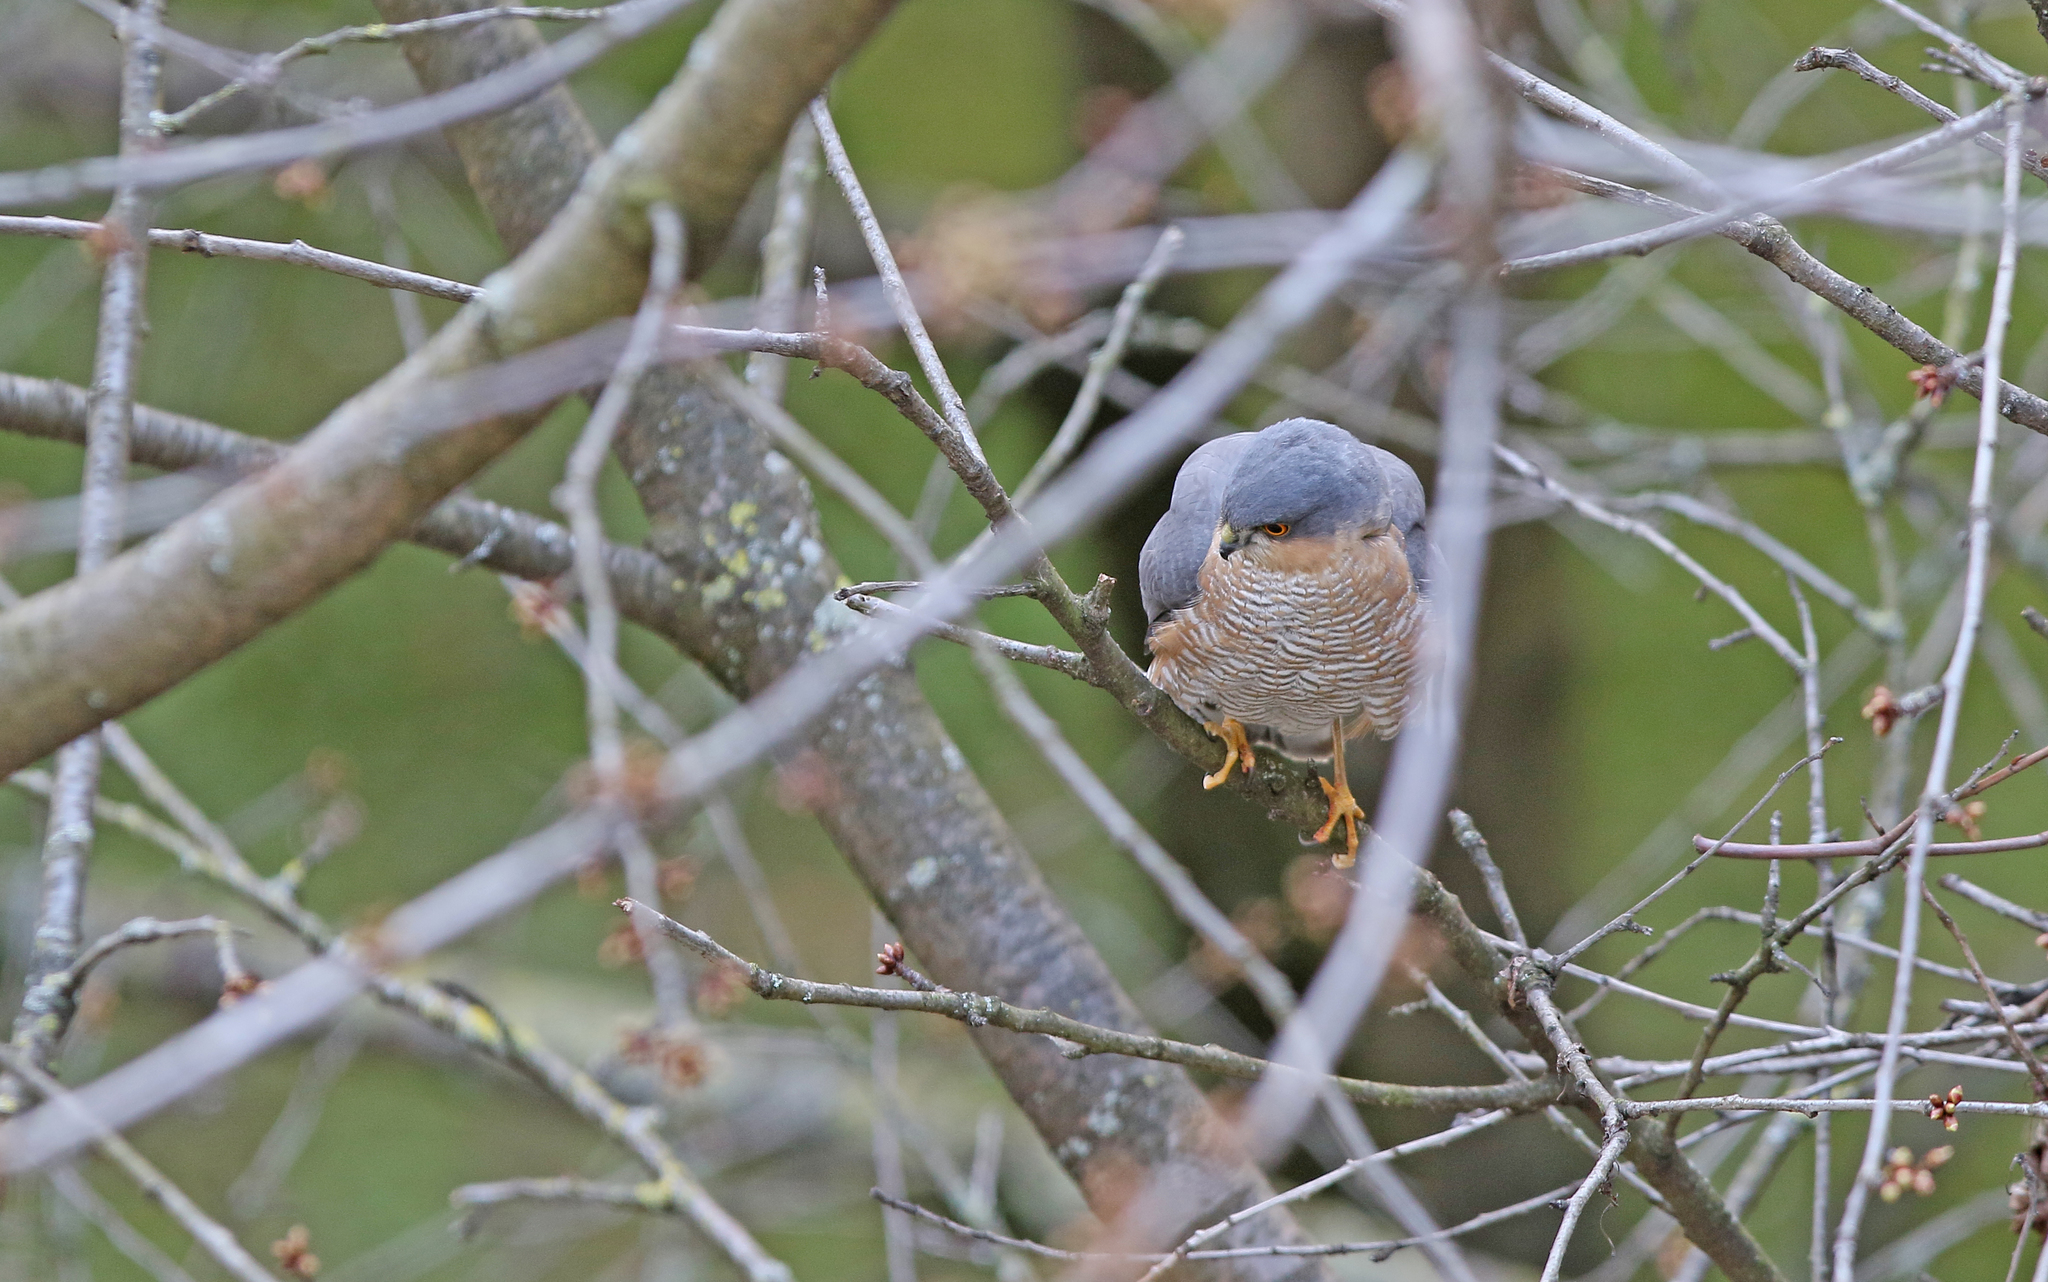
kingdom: Animalia
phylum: Chordata
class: Aves
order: Accipitriformes
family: Accipitridae
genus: Accipiter
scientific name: Accipiter nisus
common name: Eurasian sparrowhawk
